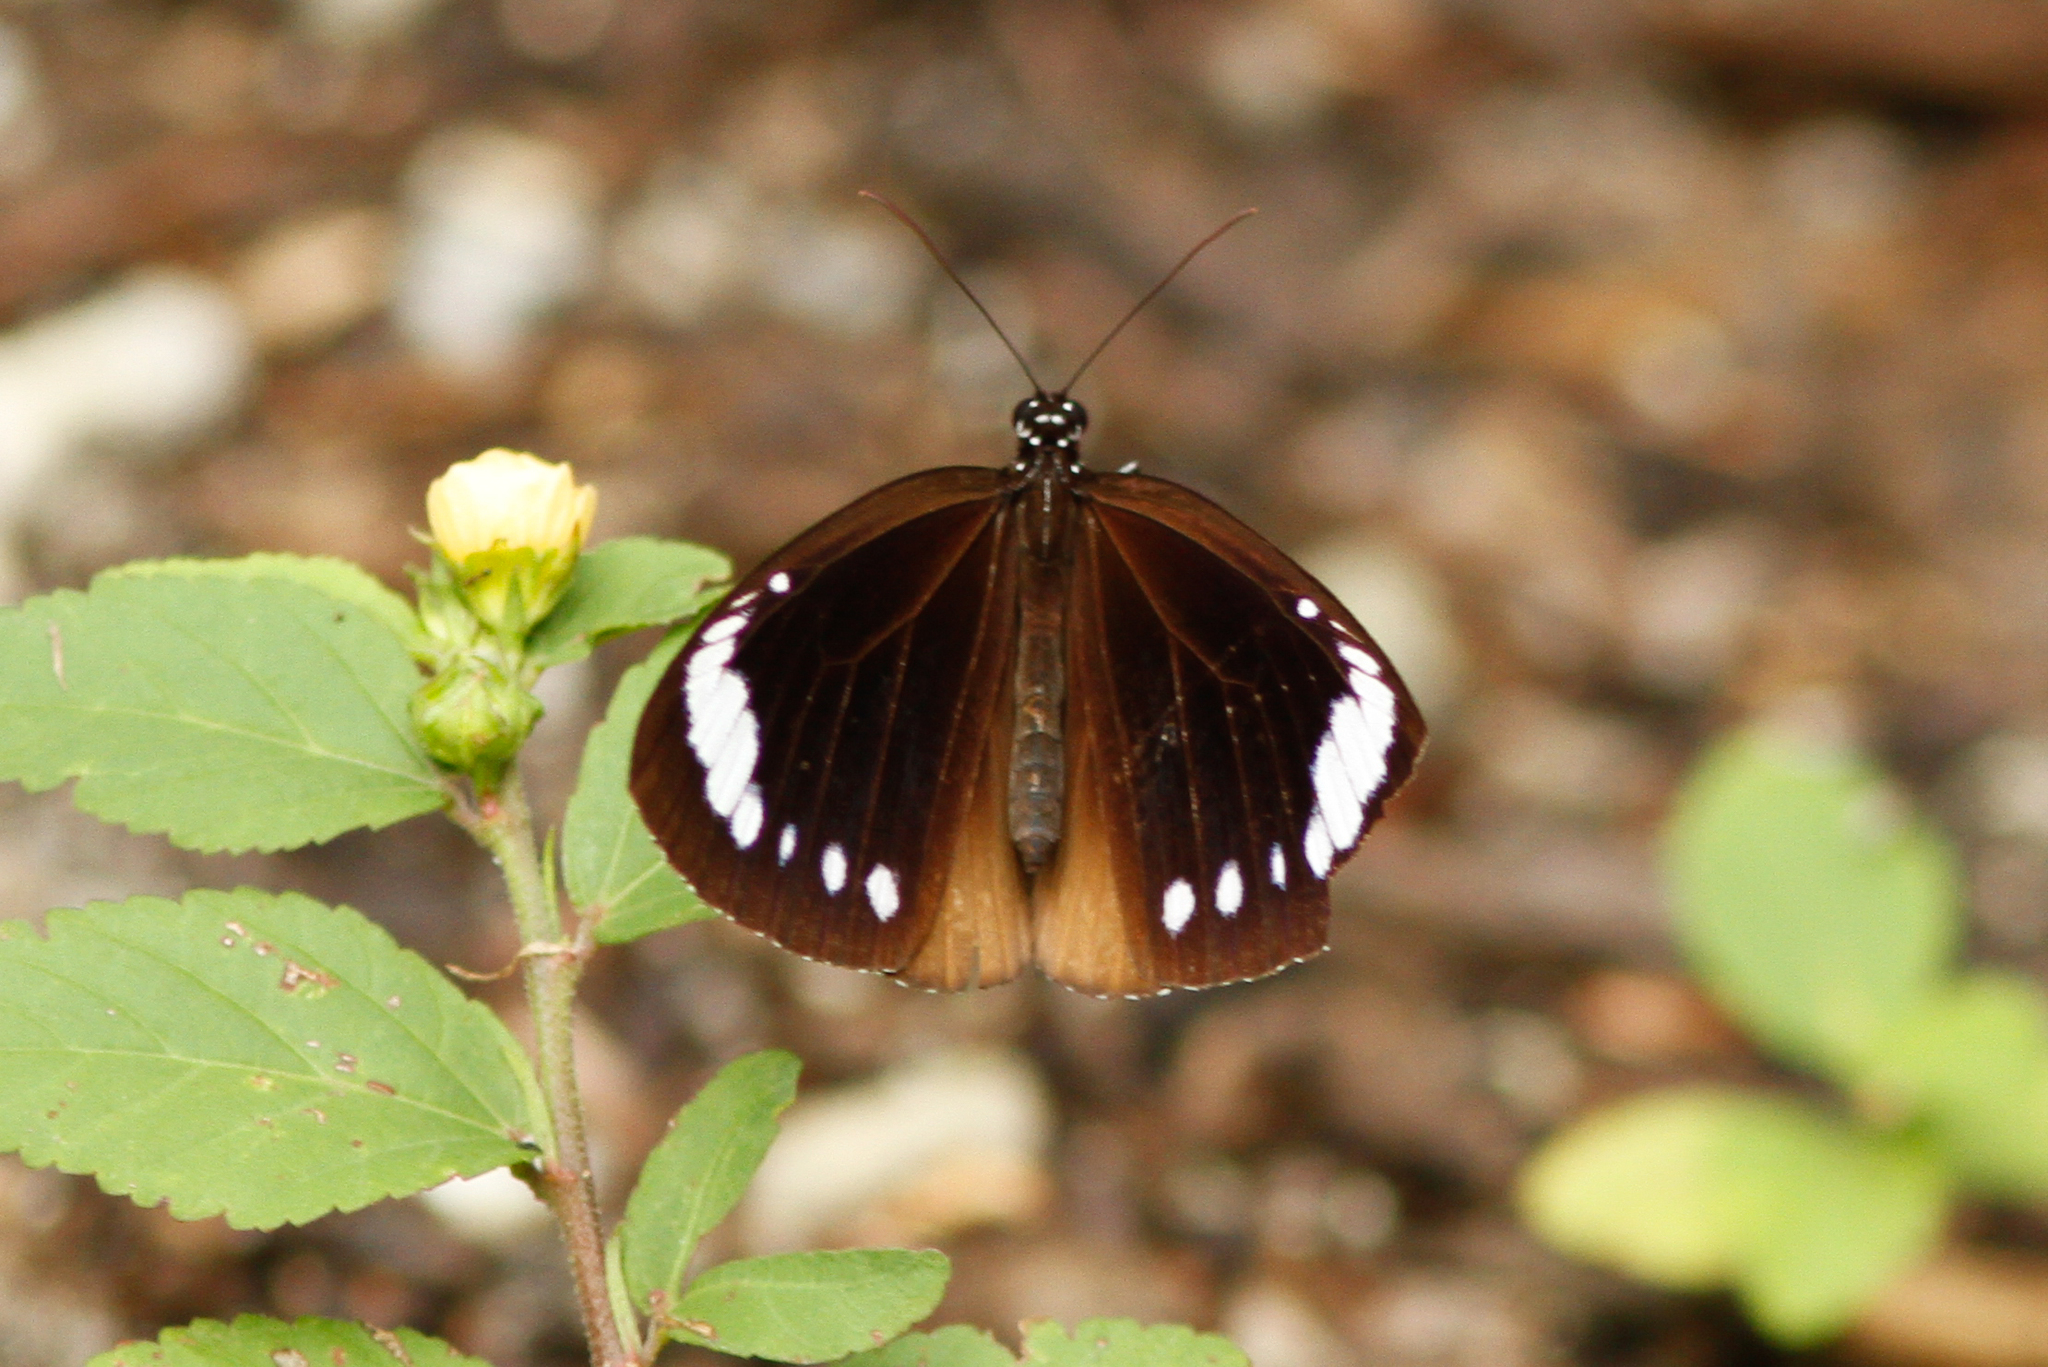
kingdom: Animalia
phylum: Arthropoda
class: Insecta
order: Lepidoptera
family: Nymphalidae
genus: Euploea
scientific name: Euploea tulliolus
